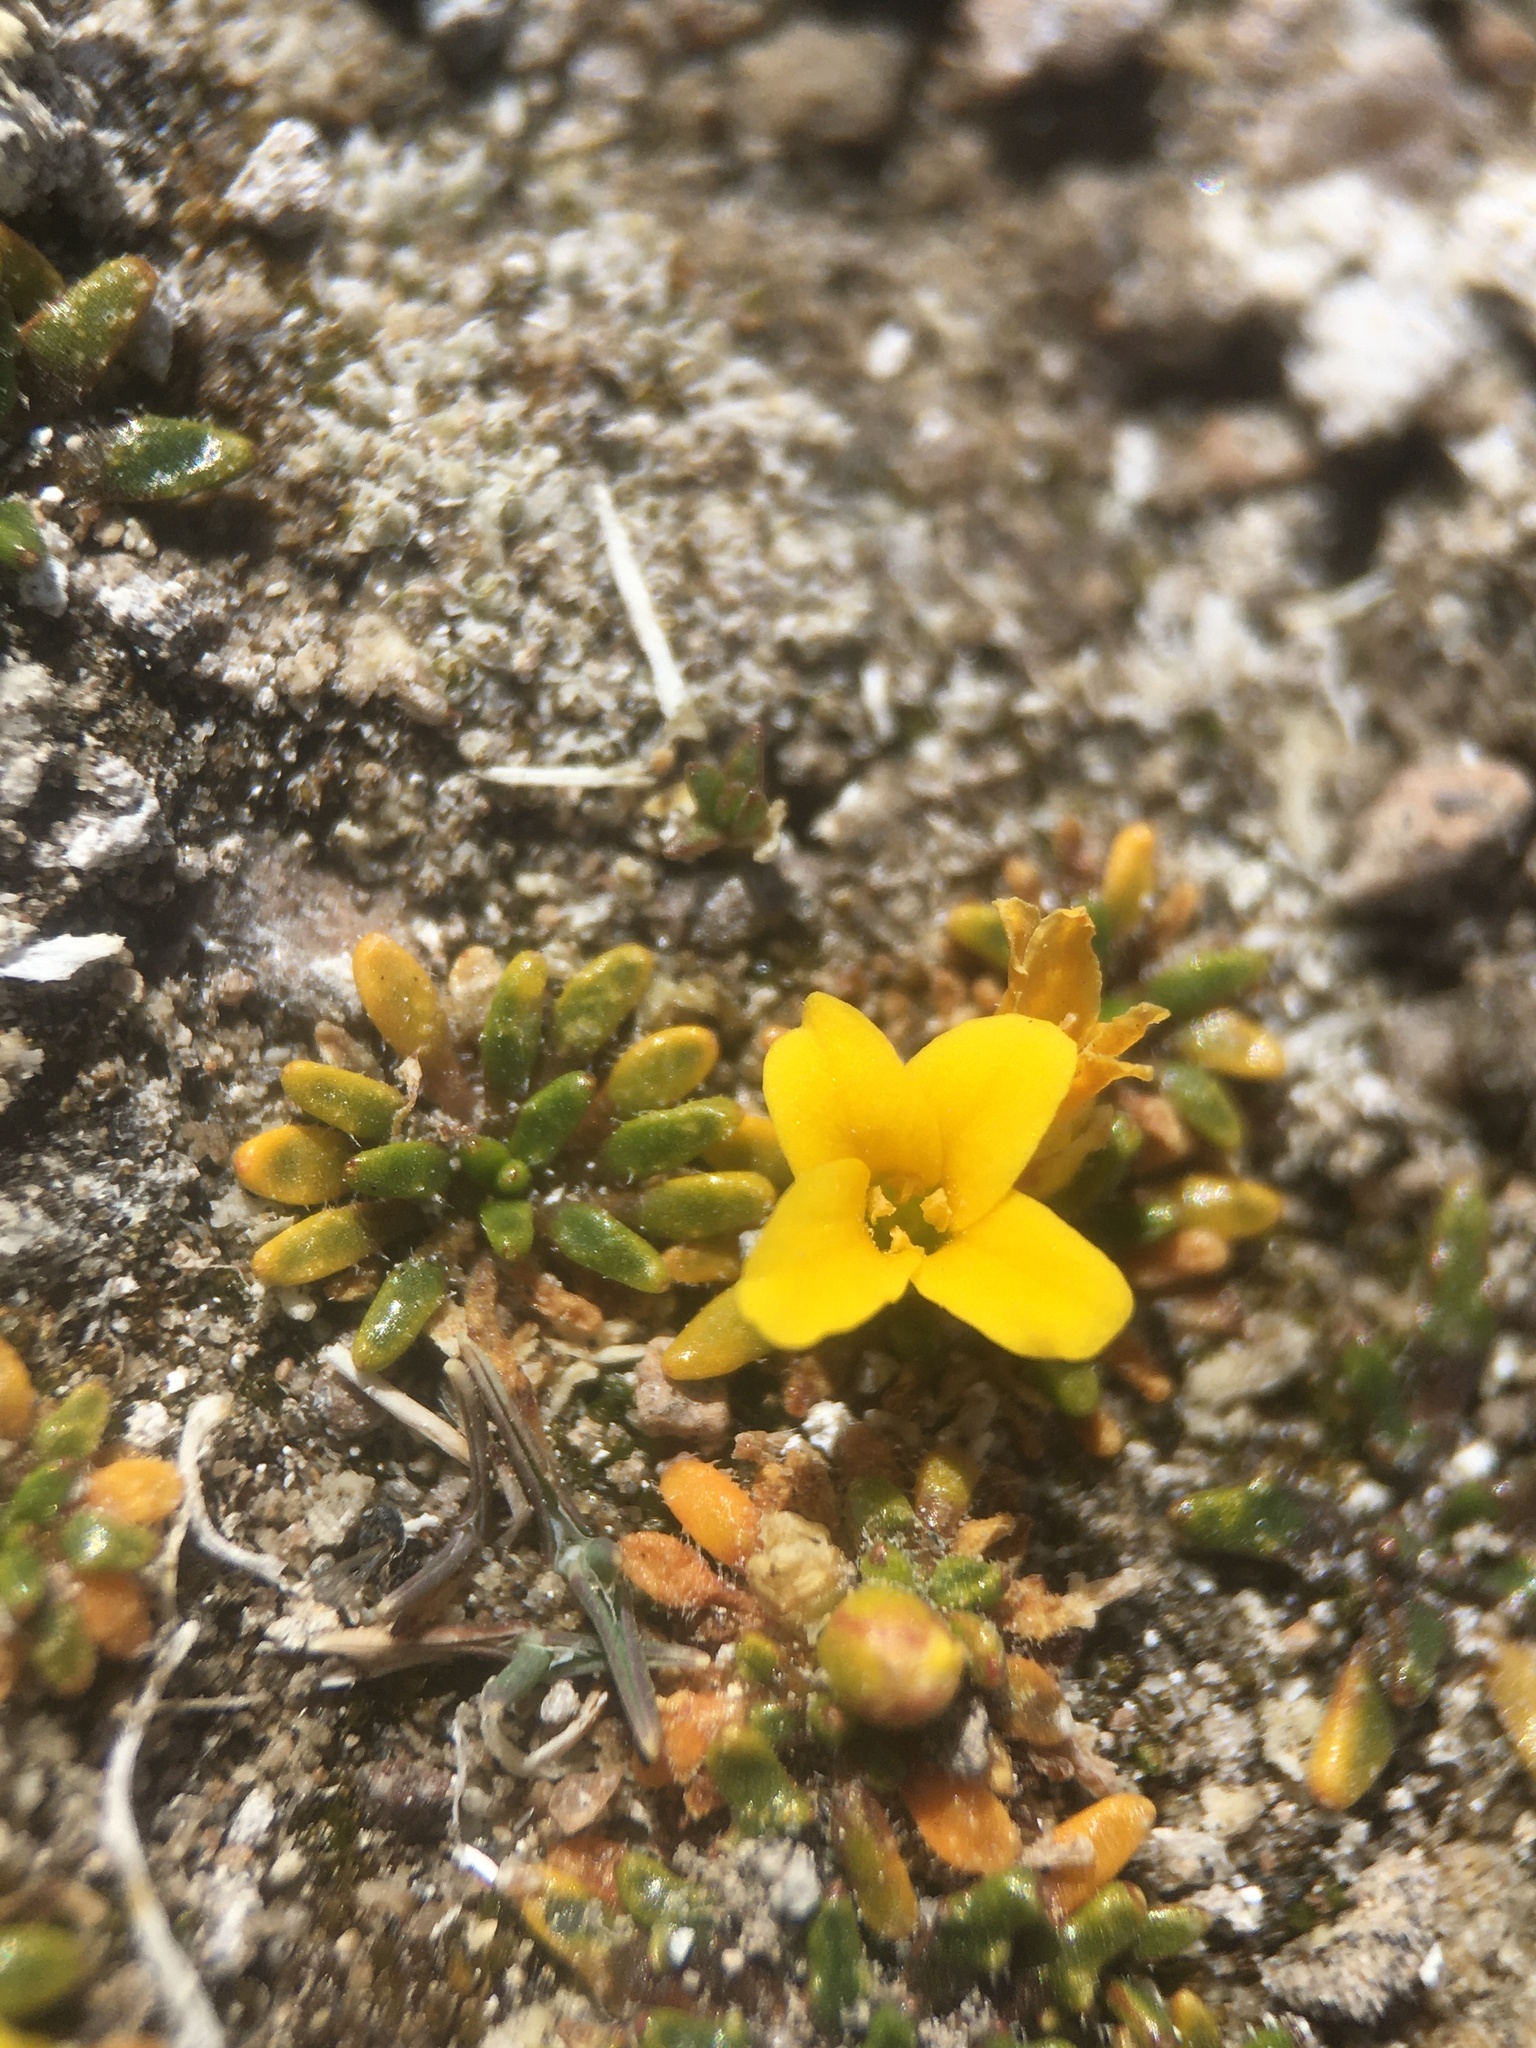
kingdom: Plantae
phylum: Tracheophyta
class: Magnoliopsida
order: Brassicales
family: Brassicaceae
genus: Petroravenia
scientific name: Petroravenia friesii
